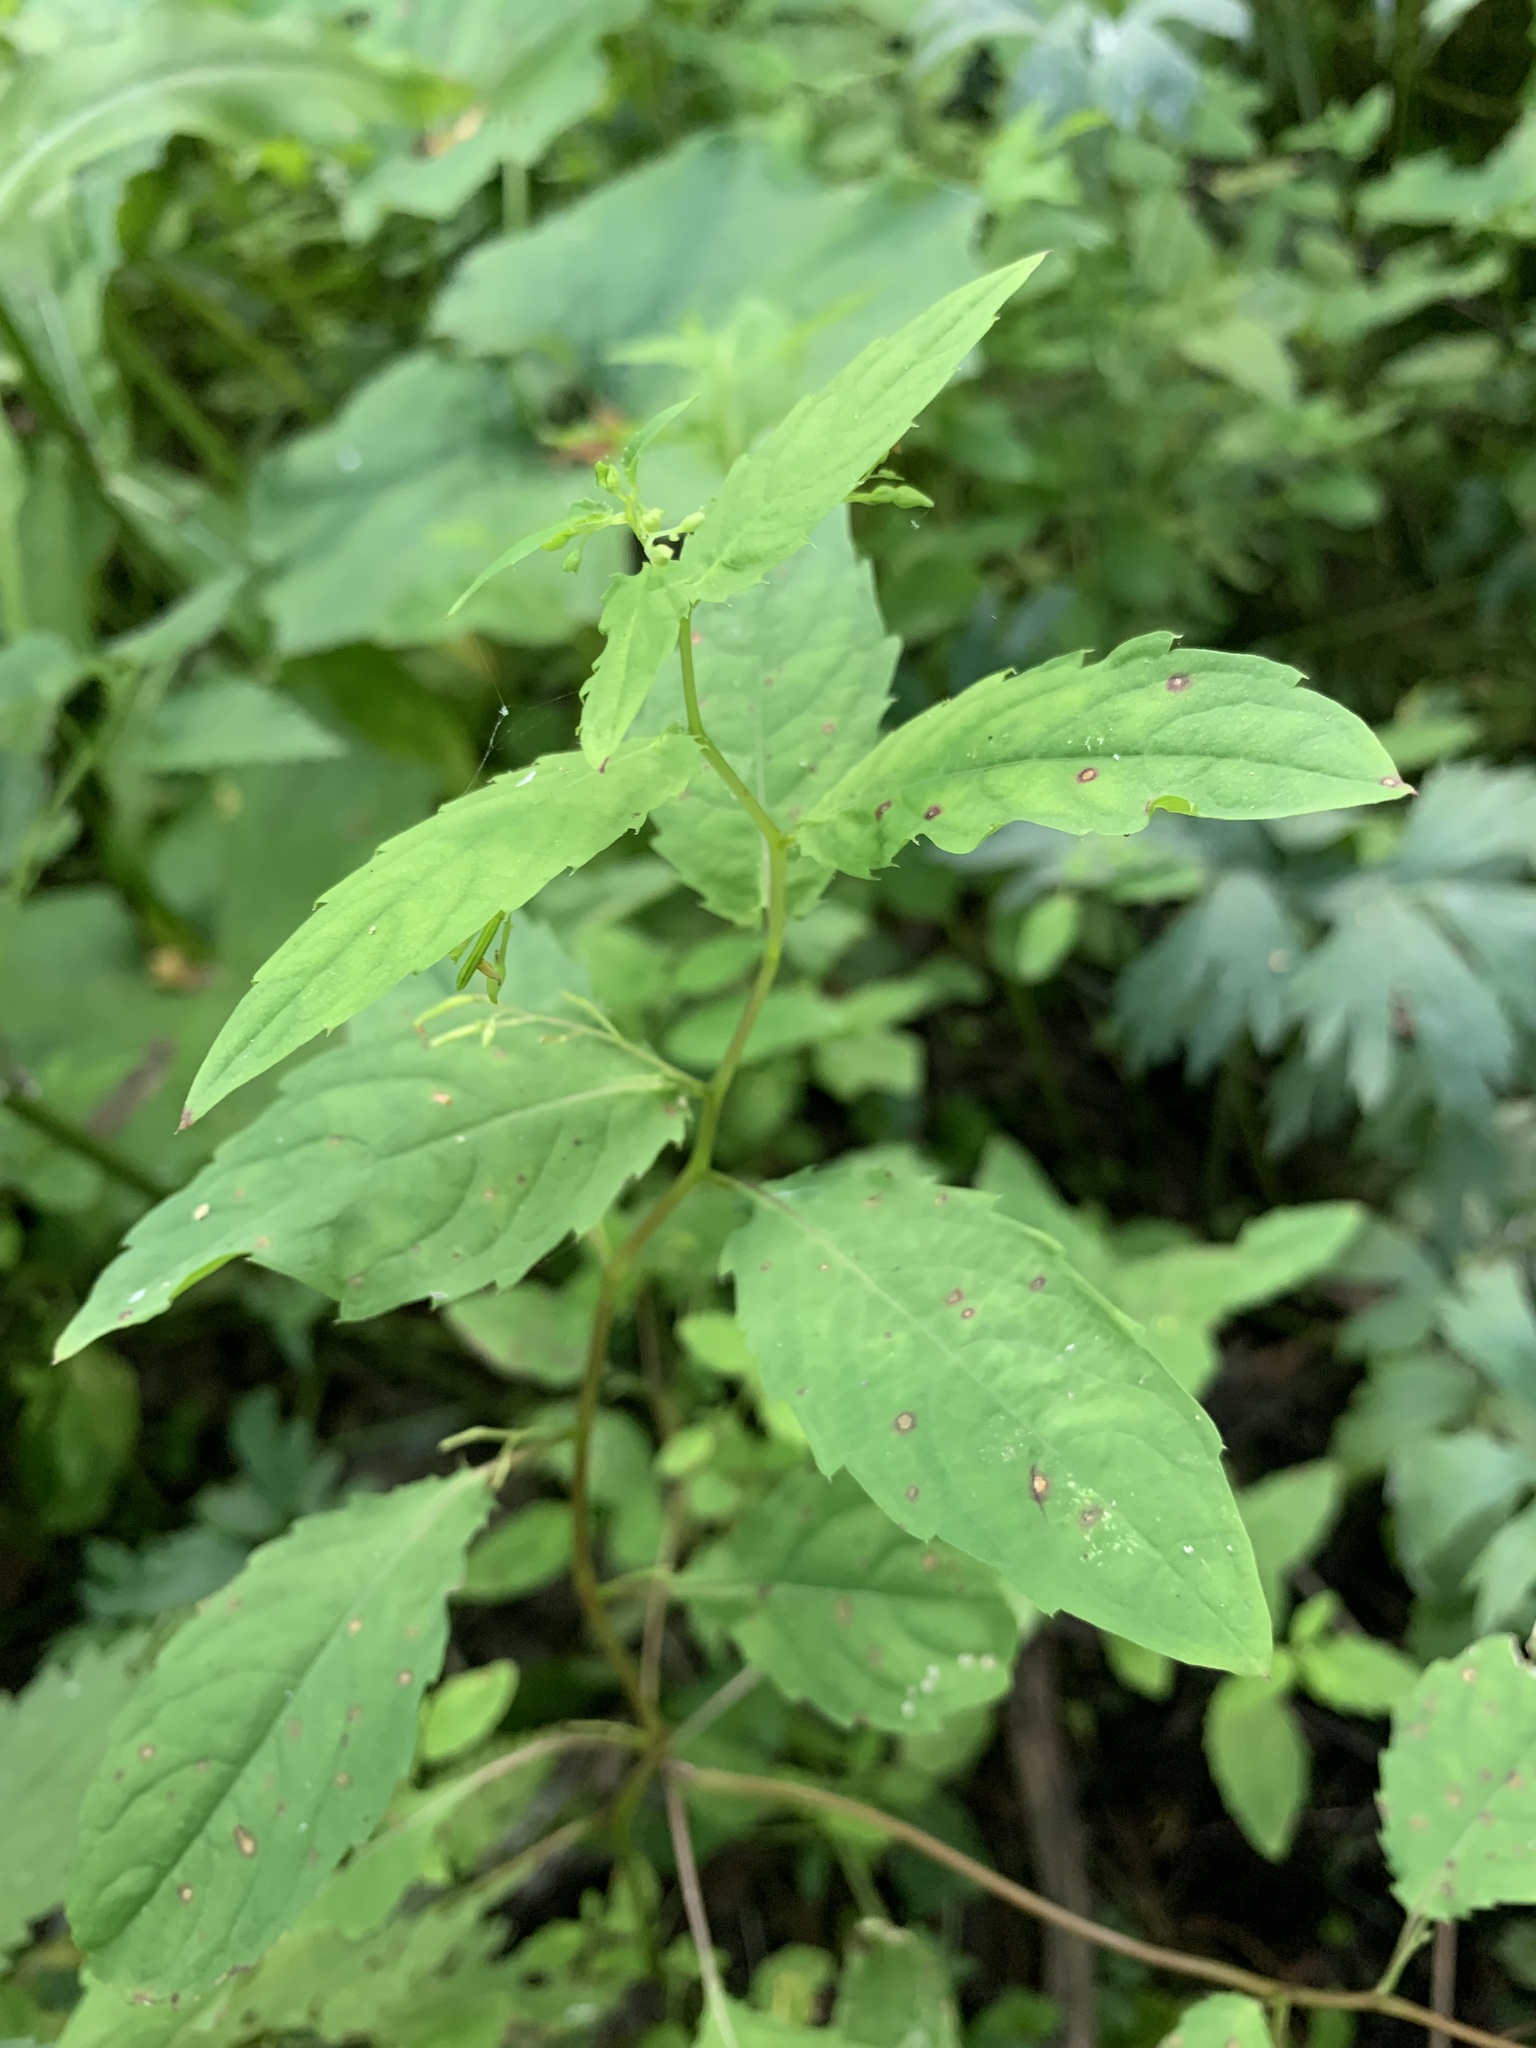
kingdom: Plantae
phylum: Tracheophyta
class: Magnoliopsida
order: Ericales
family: Balsaminaceae
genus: Impatiens
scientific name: Impatiens noli-tangere
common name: Touch-me-not balsam
